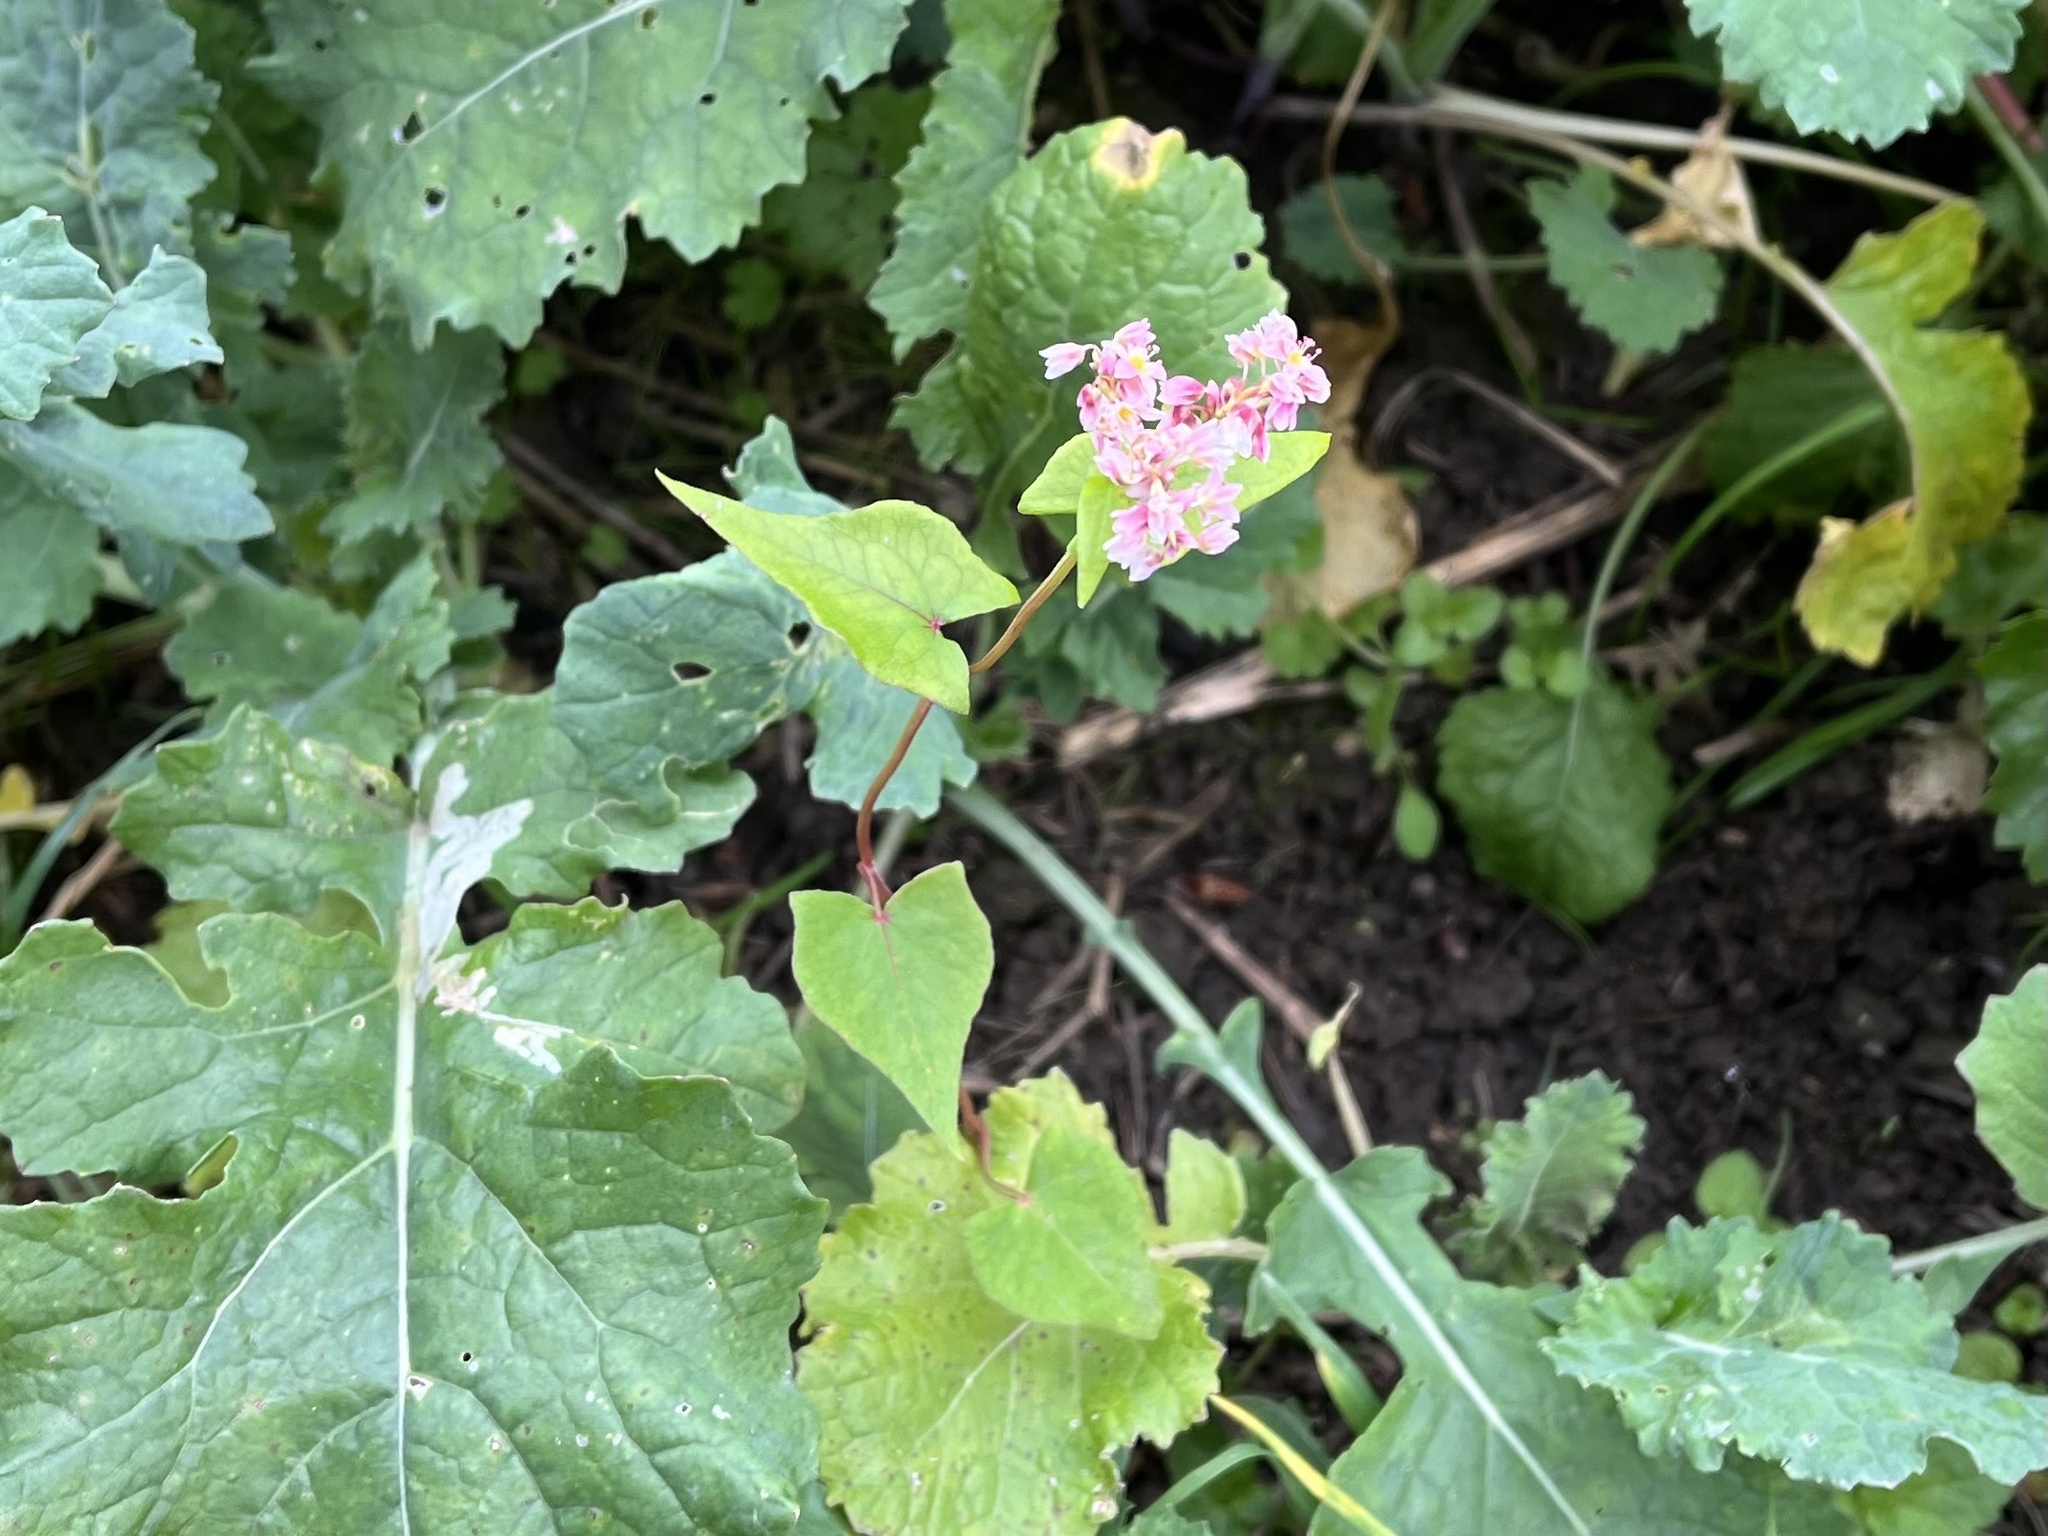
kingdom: Plantae
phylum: Tracheophyta
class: Magnoliopsida
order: Caryophyllales
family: Polygonaceae
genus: Fagopyrum
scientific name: Fagopyrum esculentum
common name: Buckwheat
